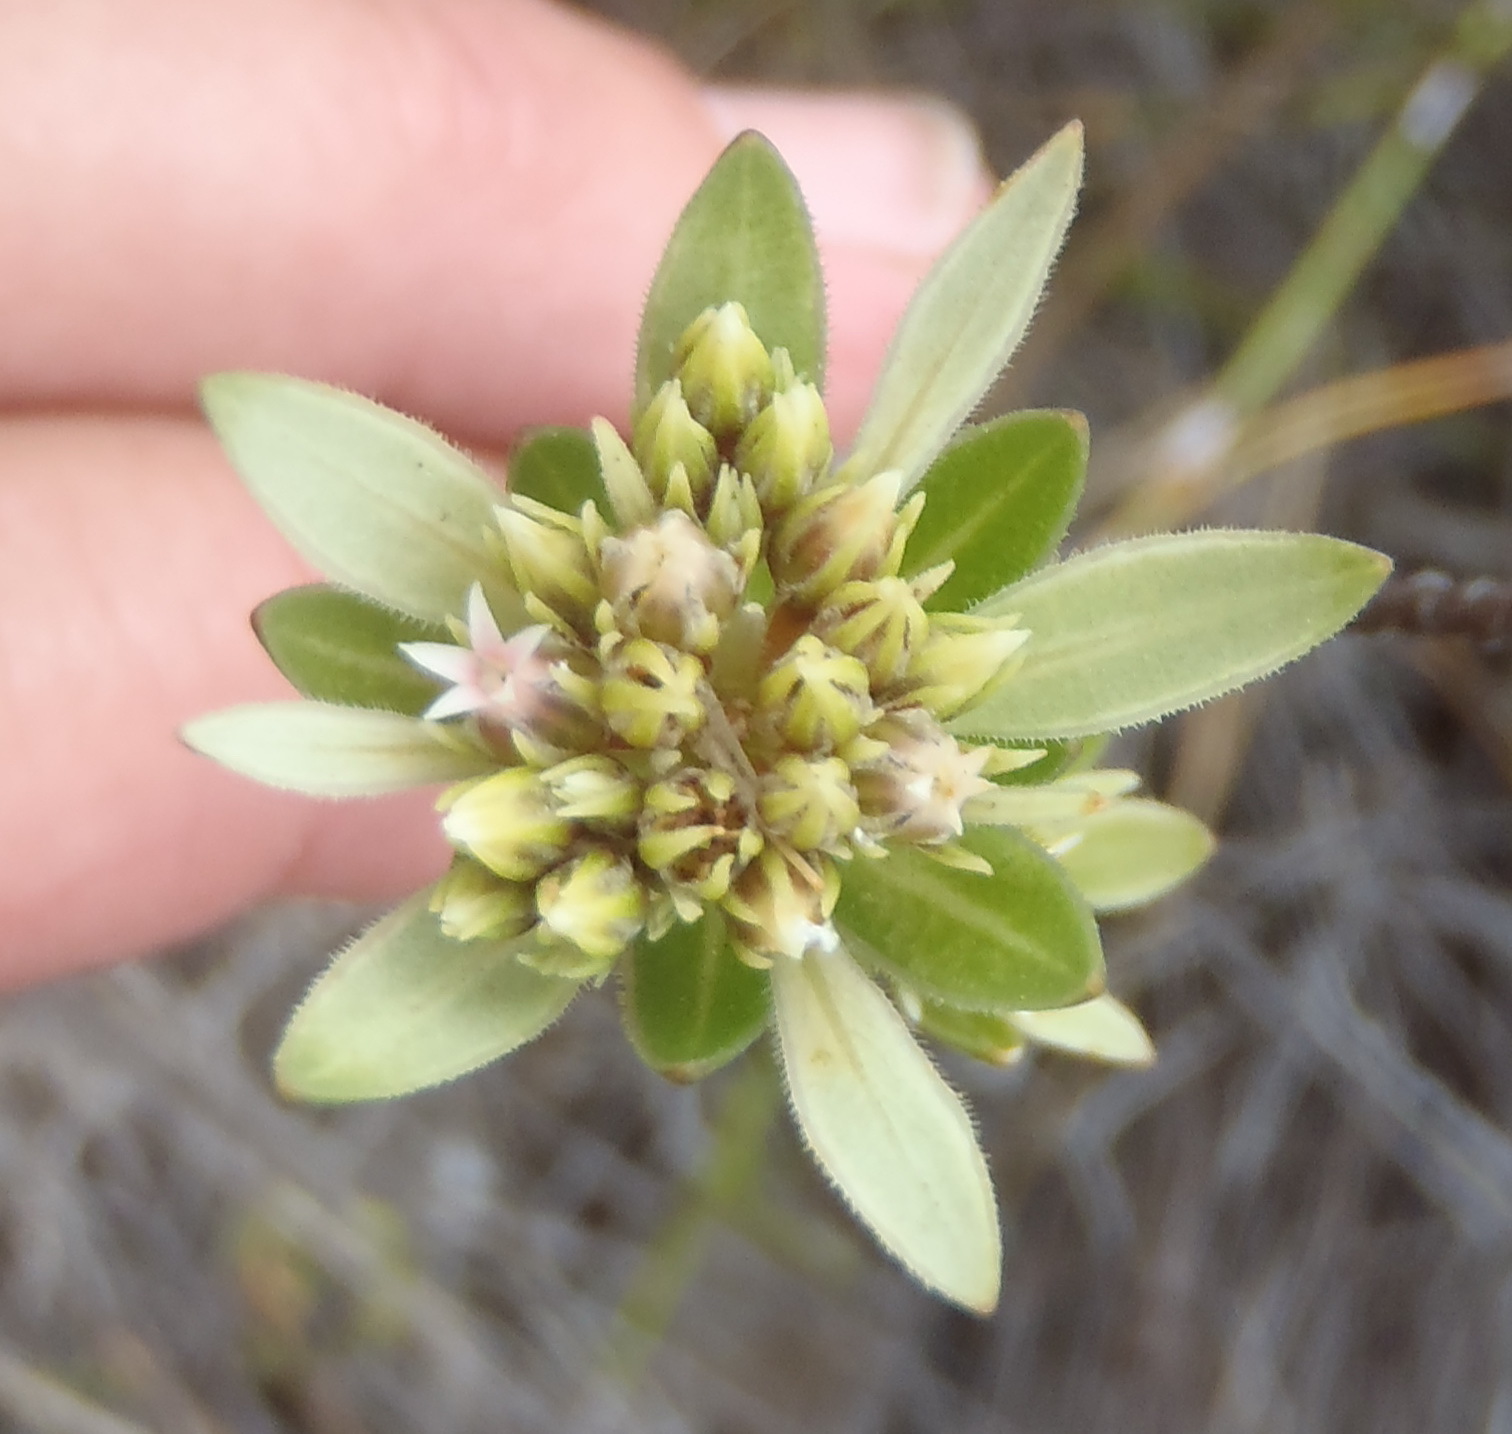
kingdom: Plantae
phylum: Tracheophyta
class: Magnoliopsida
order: Sapindales
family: Rutaceae
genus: Euchaetis
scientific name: Euchaetis longibracteata
